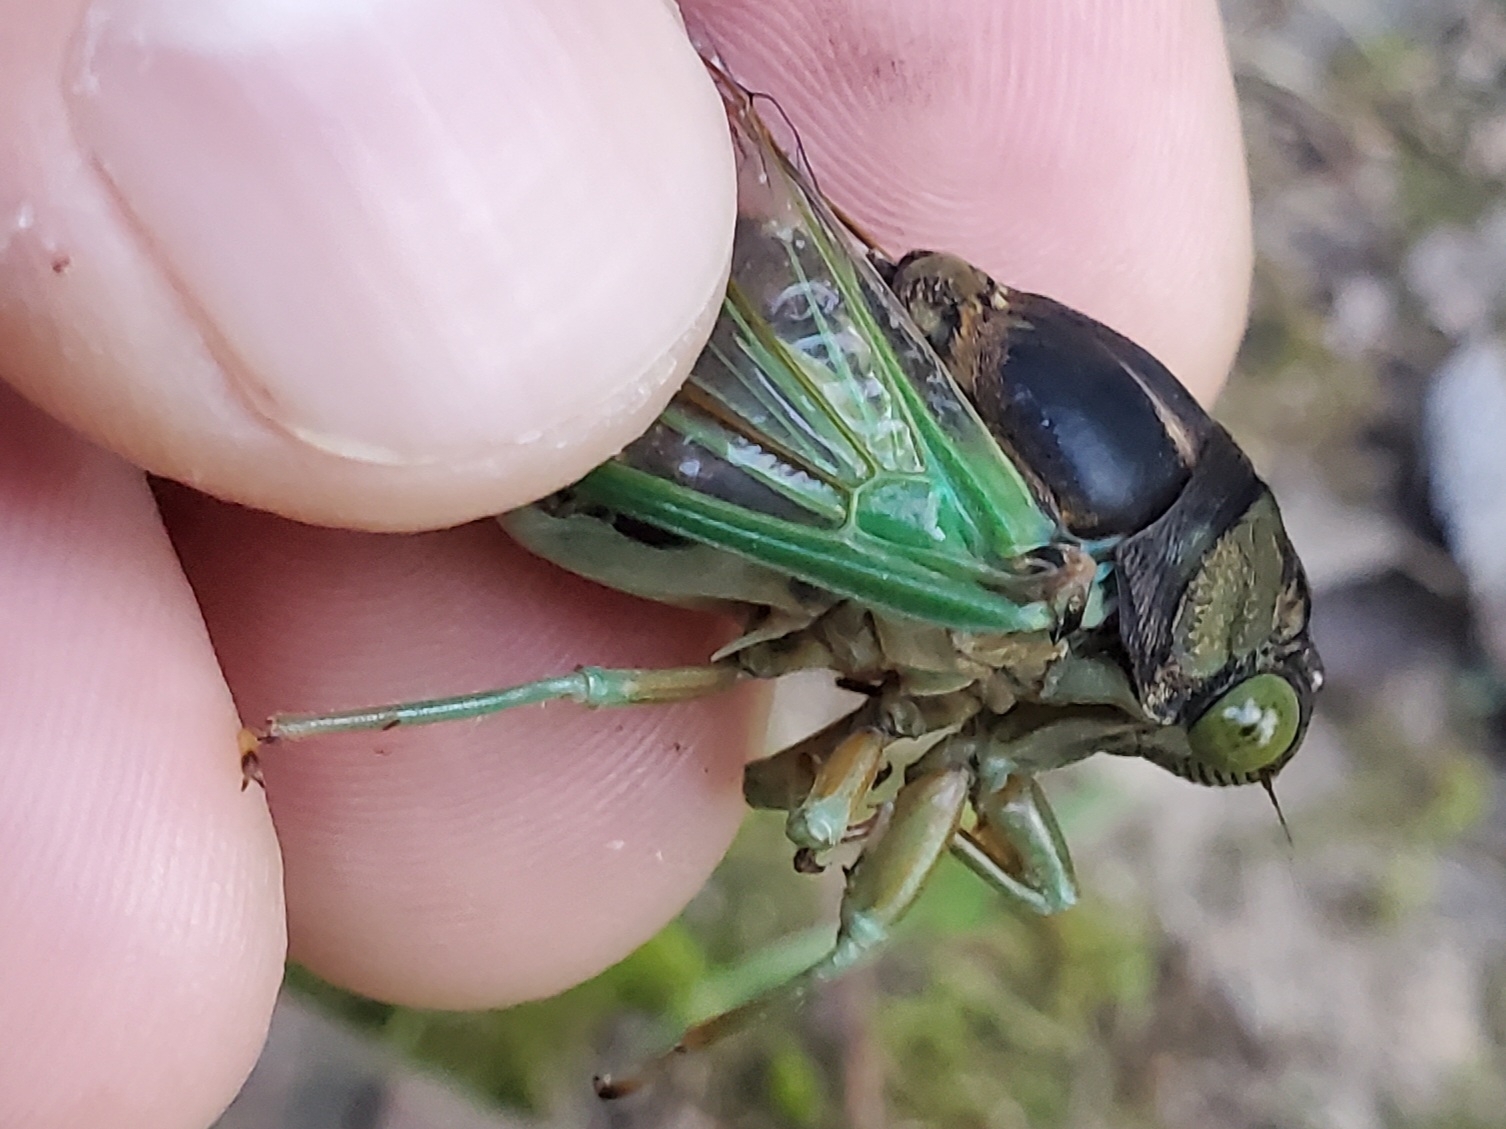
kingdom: Animalia
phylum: Arthropoda
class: Insecta
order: Hemiptera
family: Cicadidae
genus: Neotibicen
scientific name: Neotibicen tibicen
